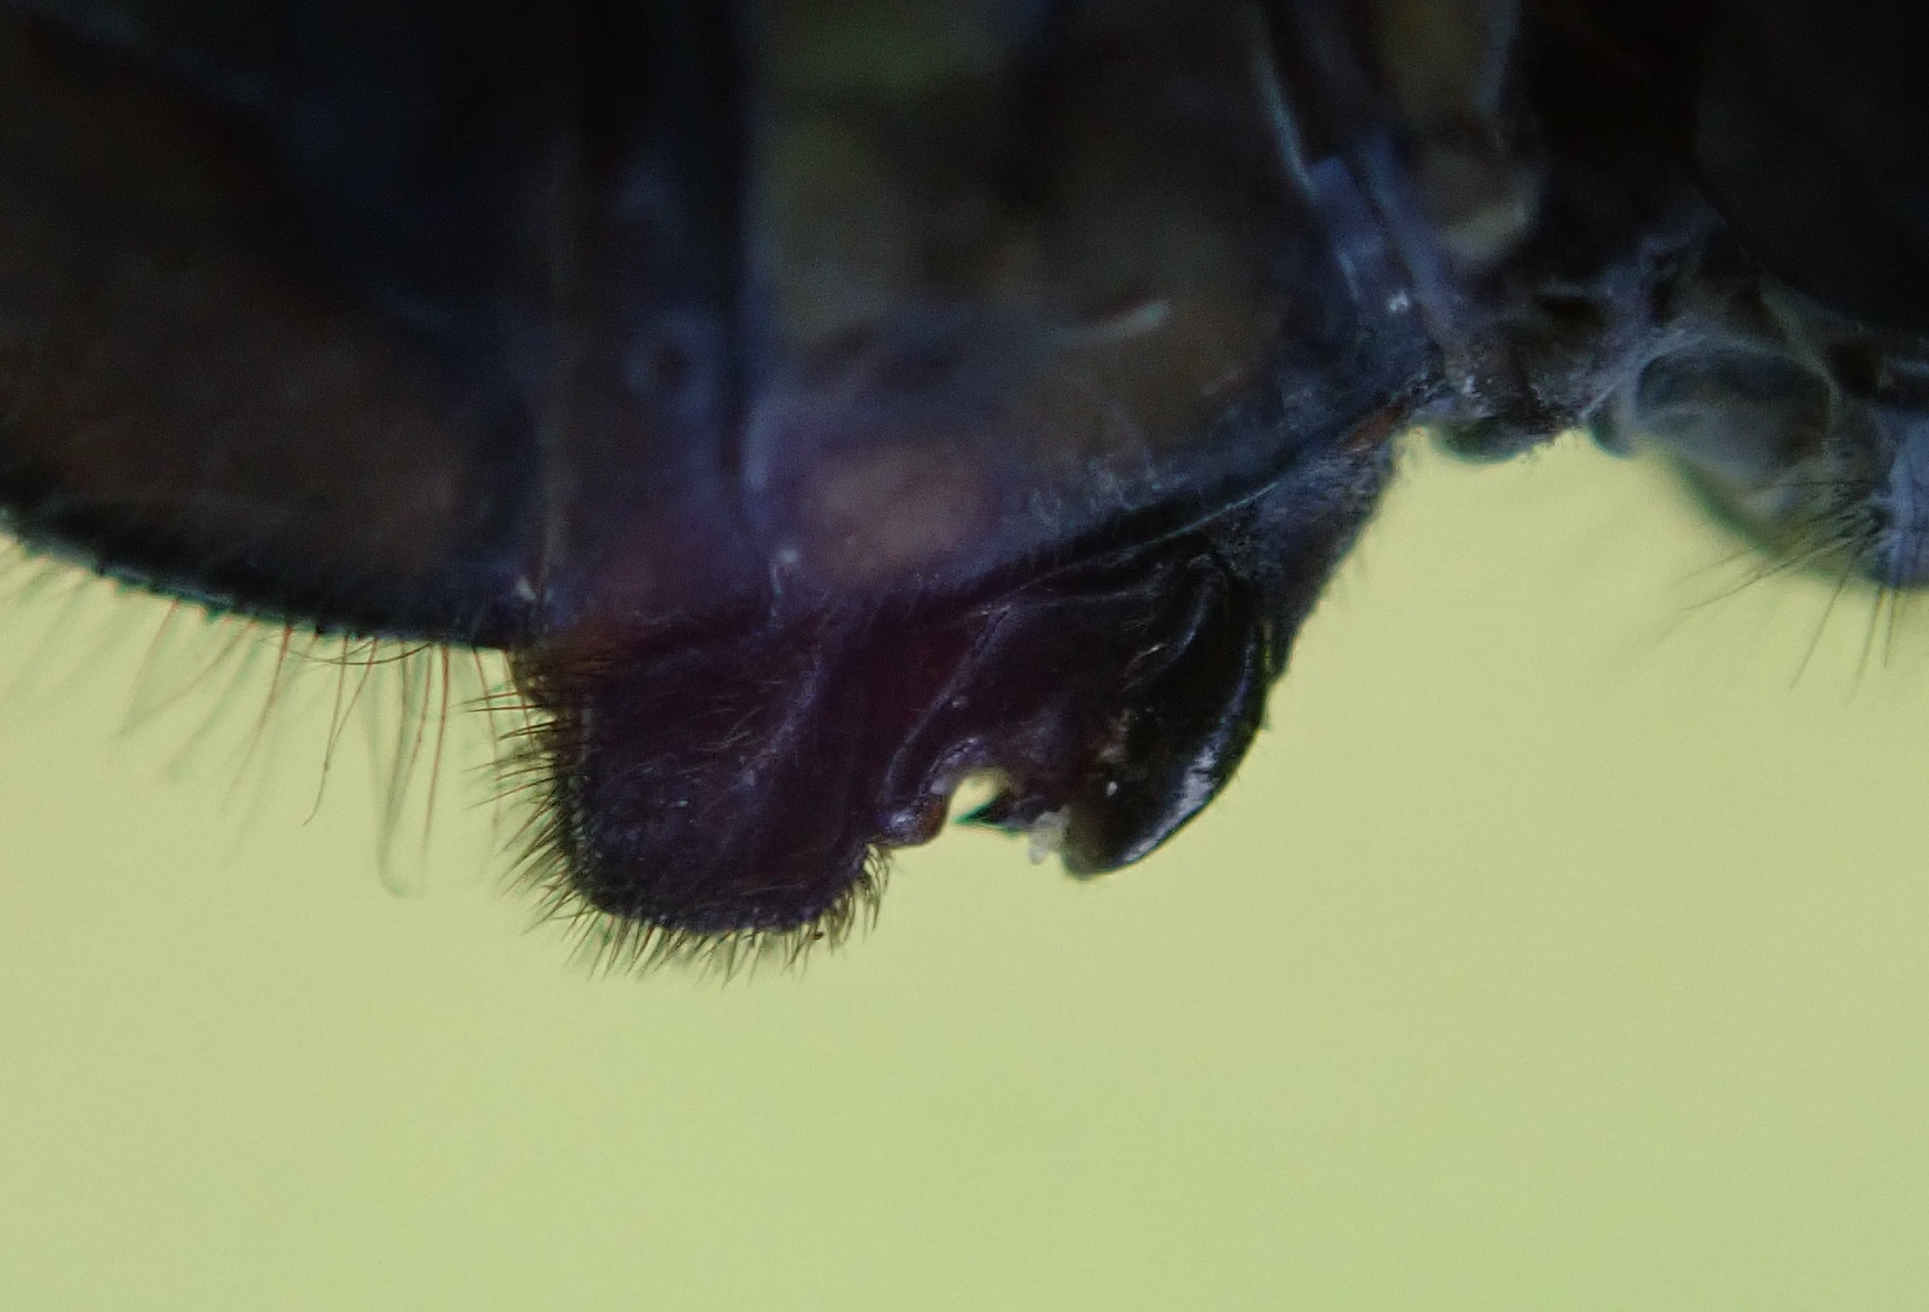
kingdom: Animalia
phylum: Arthropoda
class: Insecta
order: Odonata
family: Libellulidae
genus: Orthetrum
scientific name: Orthetrum stemmale
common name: Bold skimmer
